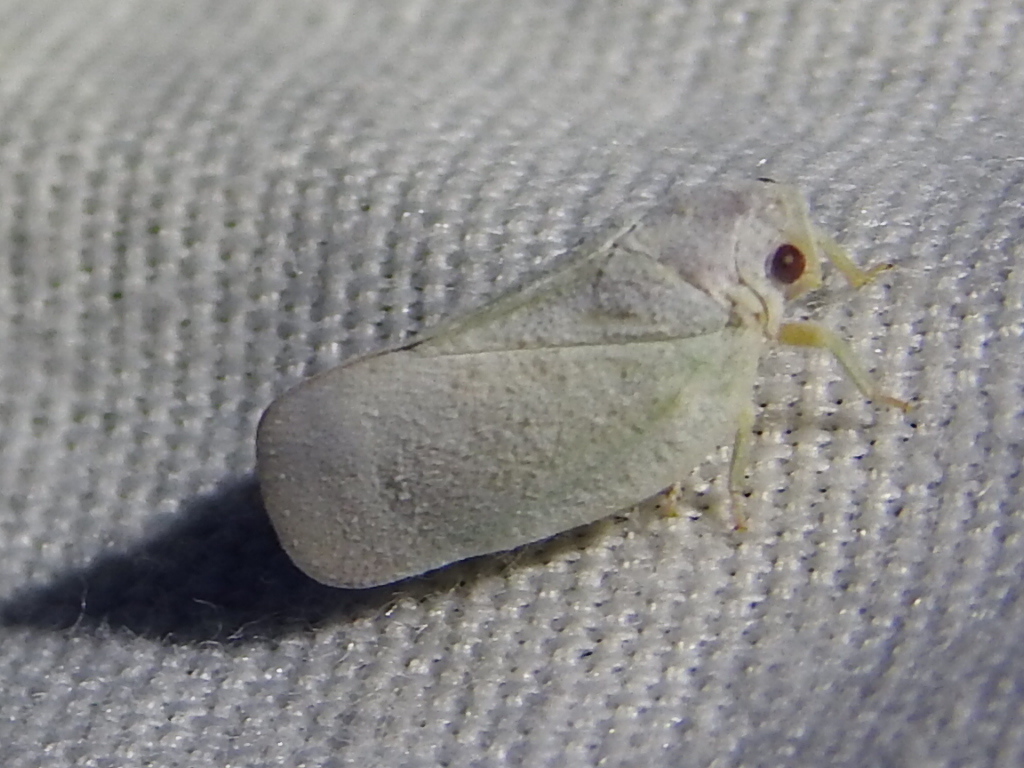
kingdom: Animalia
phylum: Arthropoda
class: Insecta
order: Hemiptera
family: Flatidae
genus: Flatormenis
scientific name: Flatormenis saucia
